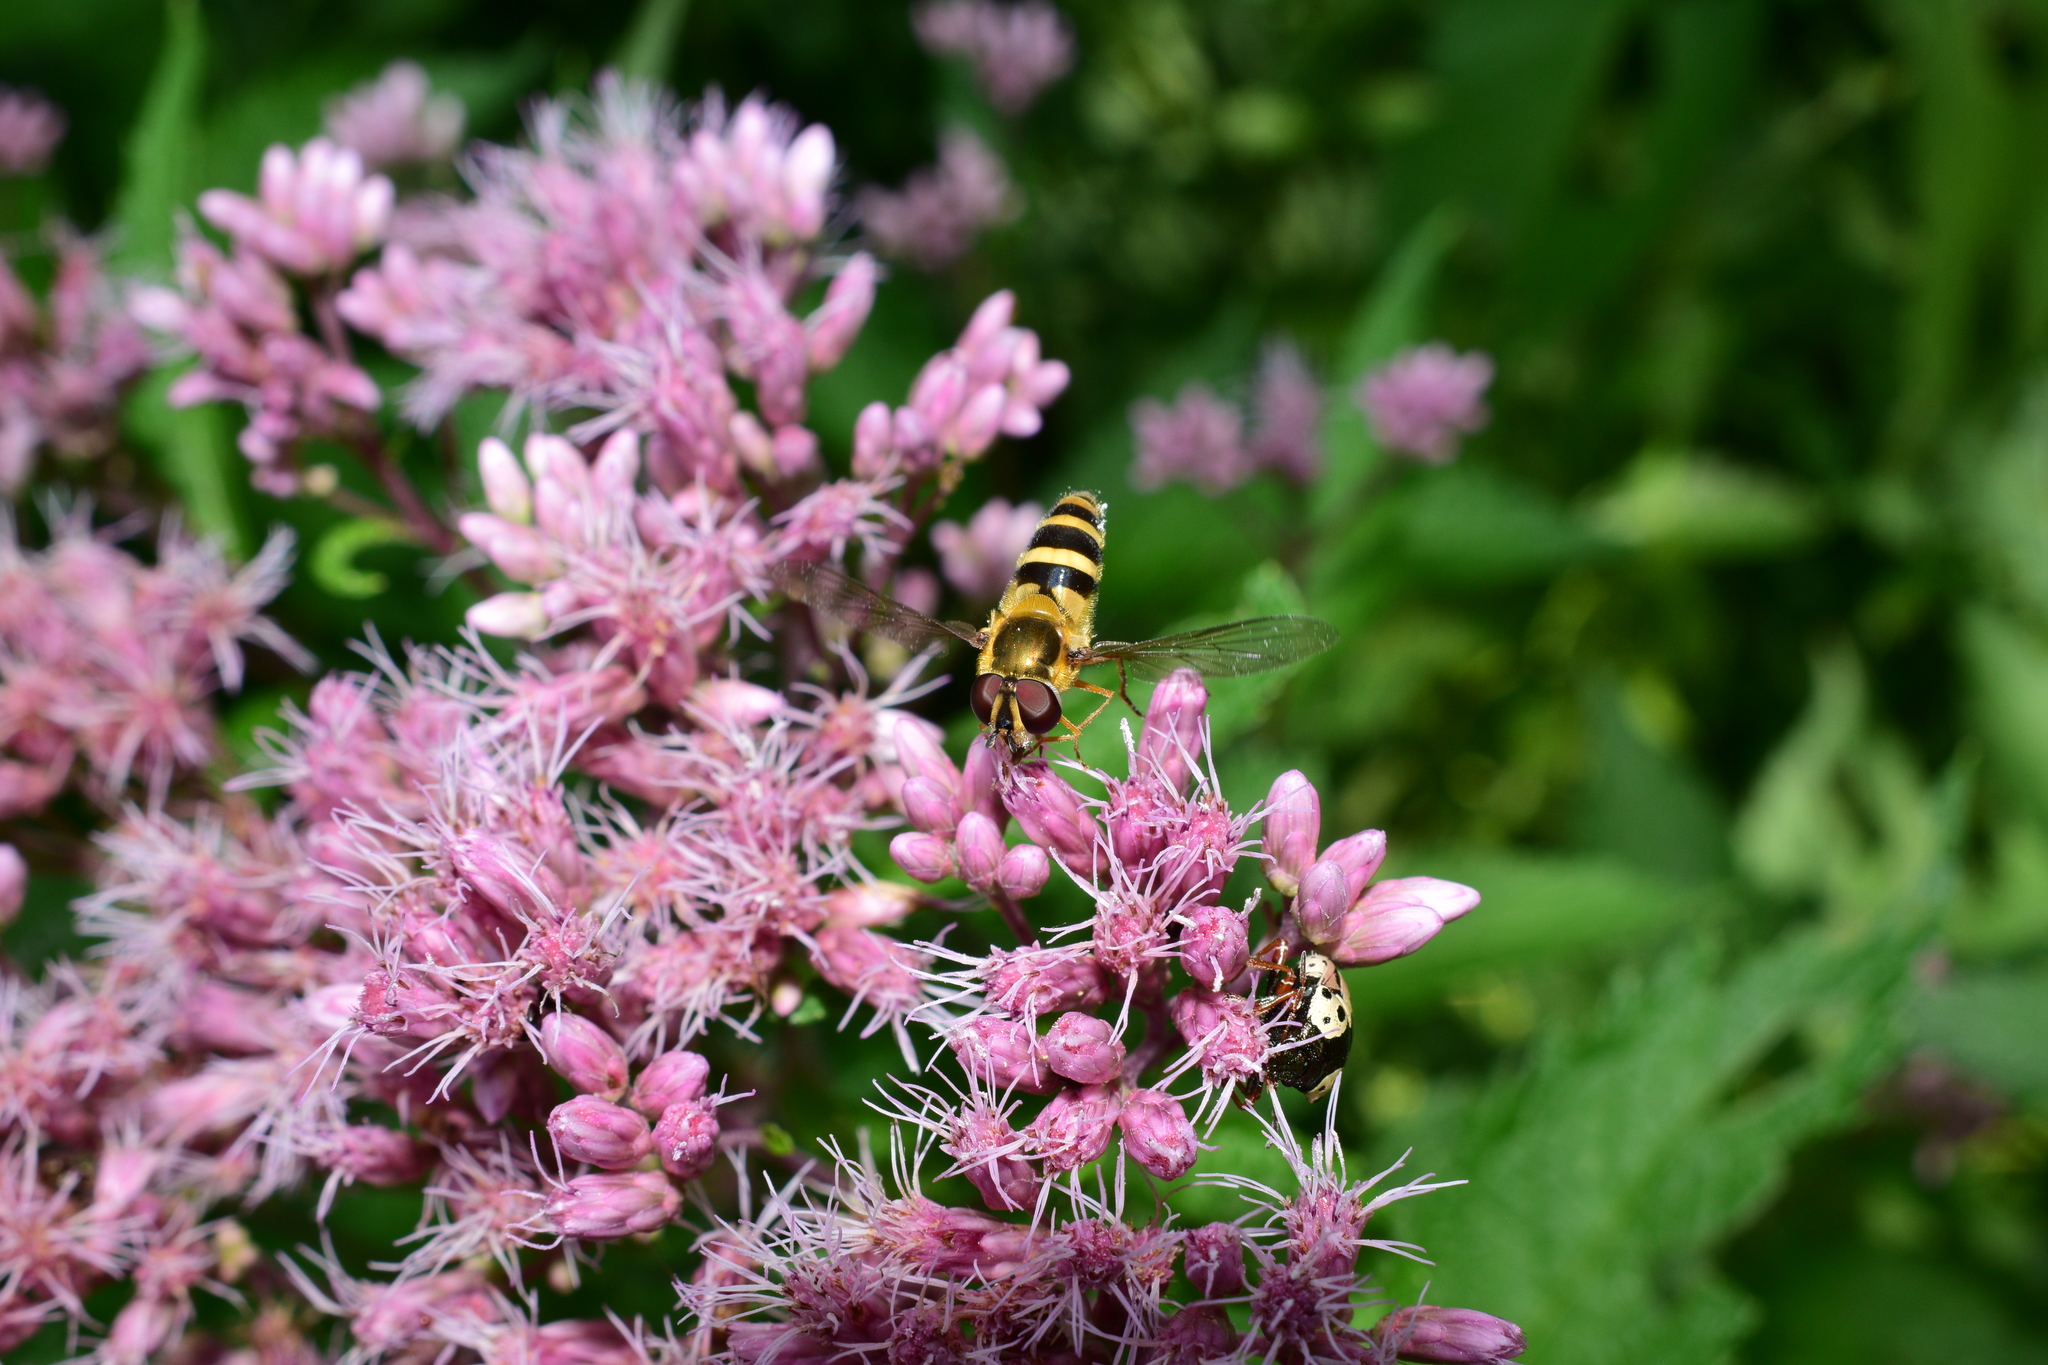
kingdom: Animalia
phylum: Arthropoda
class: Insecta
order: Diptera
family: Syrphidae
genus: Epistrophe
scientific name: Epistrophe grossulariae
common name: Black-horned smoothtail
